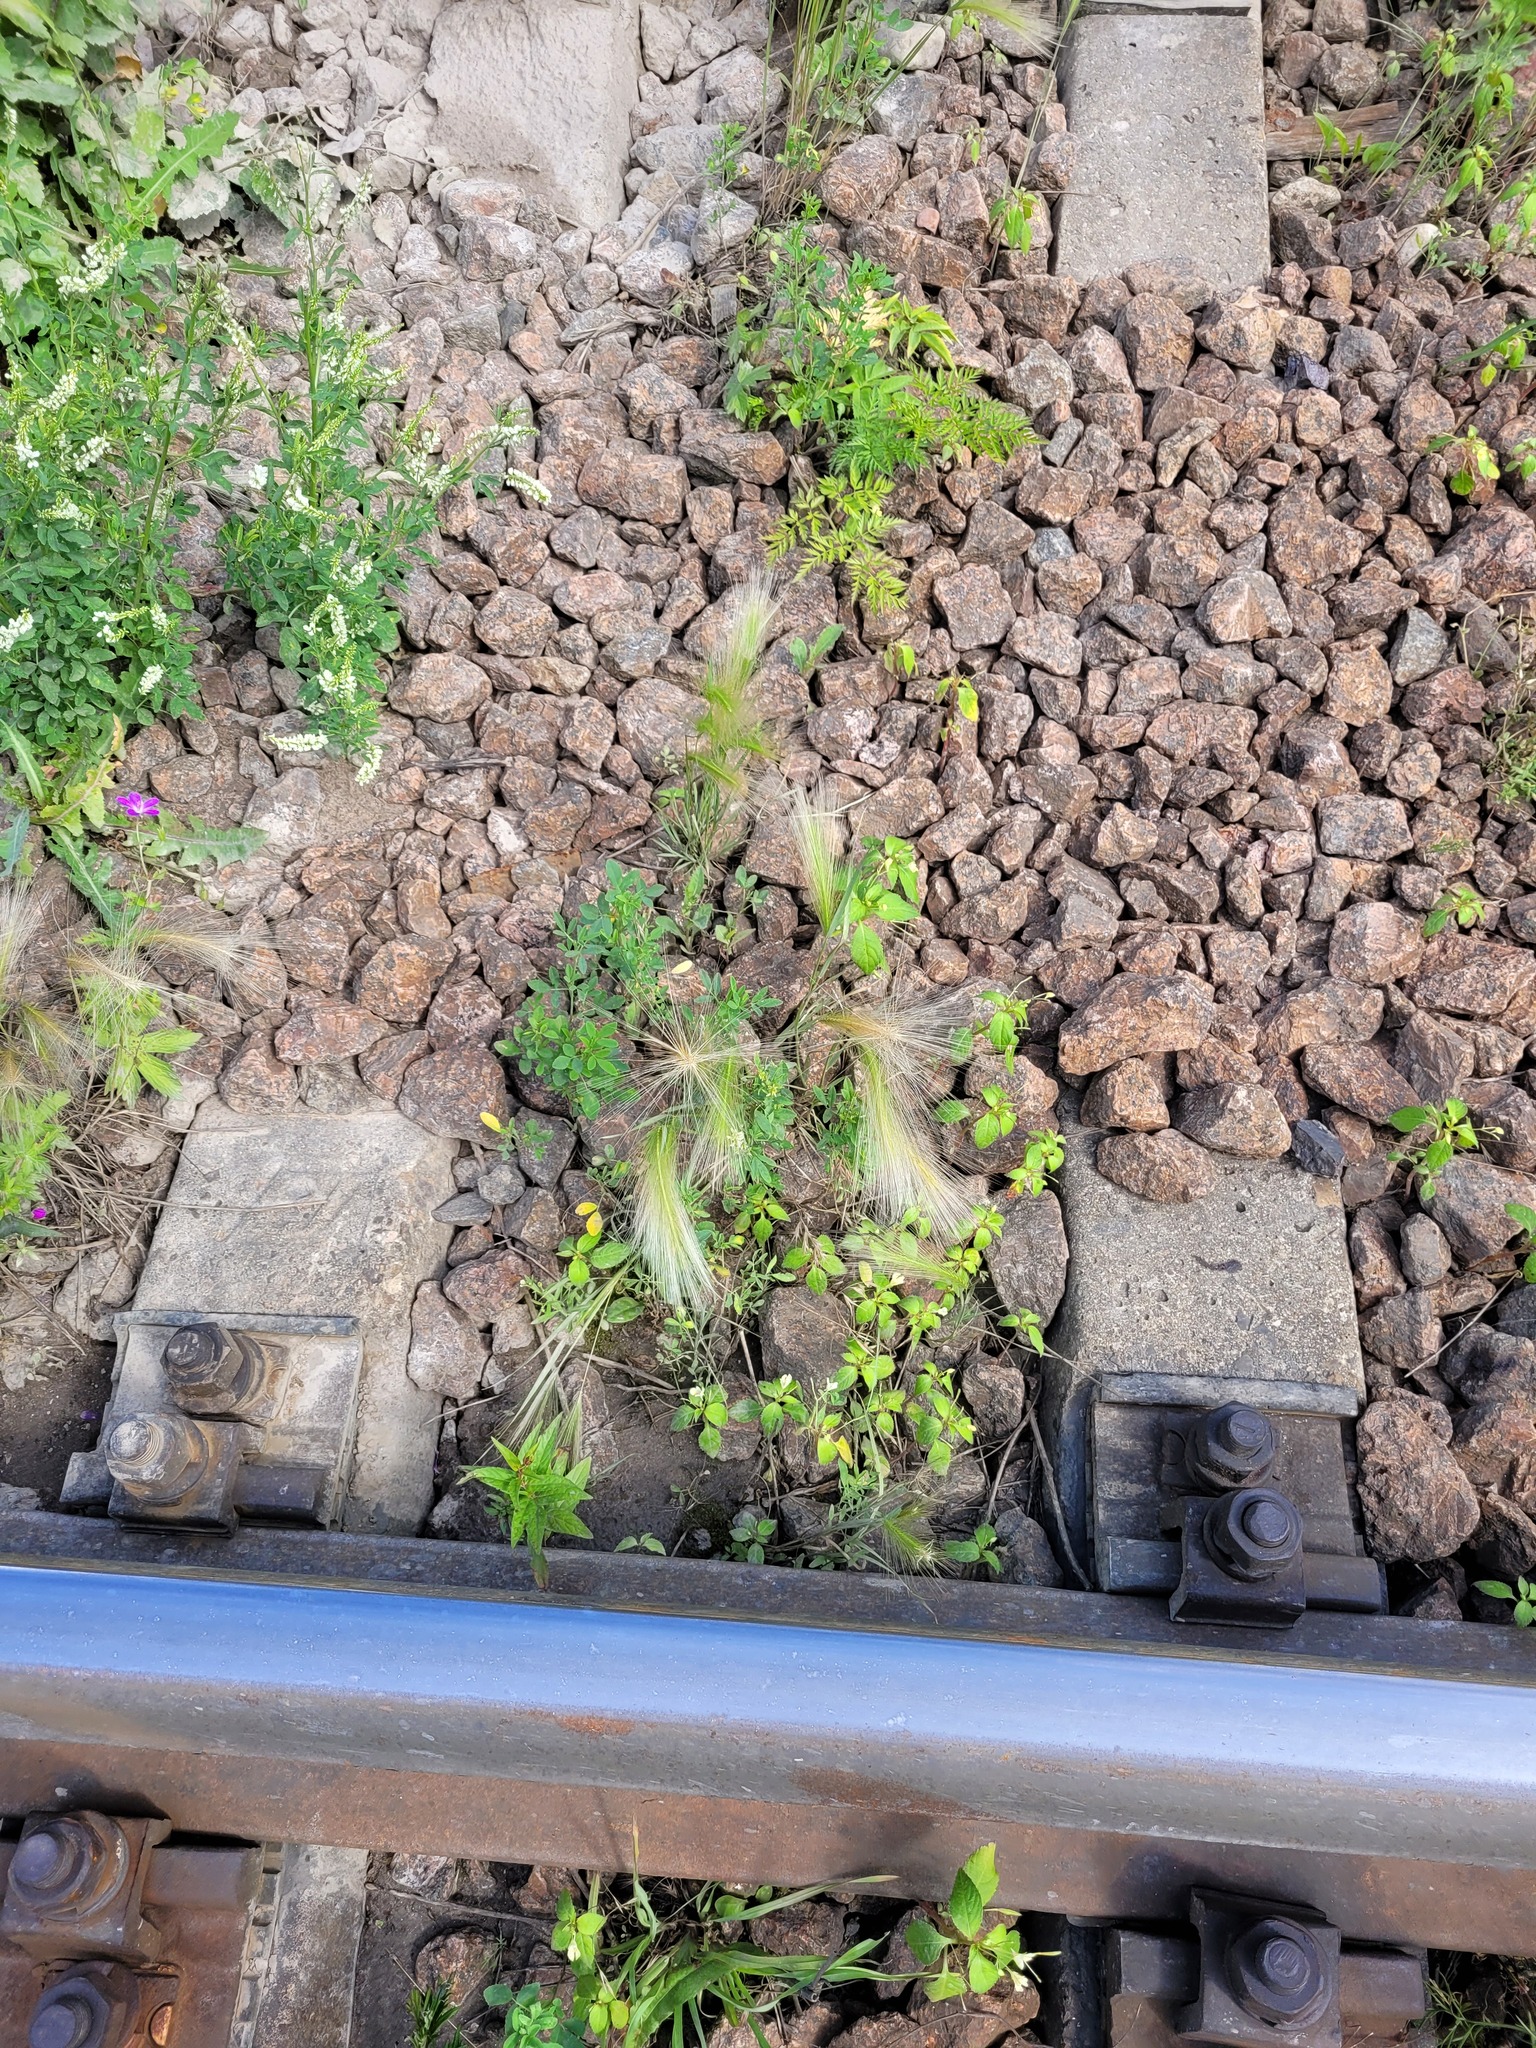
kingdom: Plantae
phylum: Tracheophyta
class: Liliopsida
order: Poales
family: Poaceae
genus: Hordeum
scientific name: Hordeum jubatum
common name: Foxtail barley
